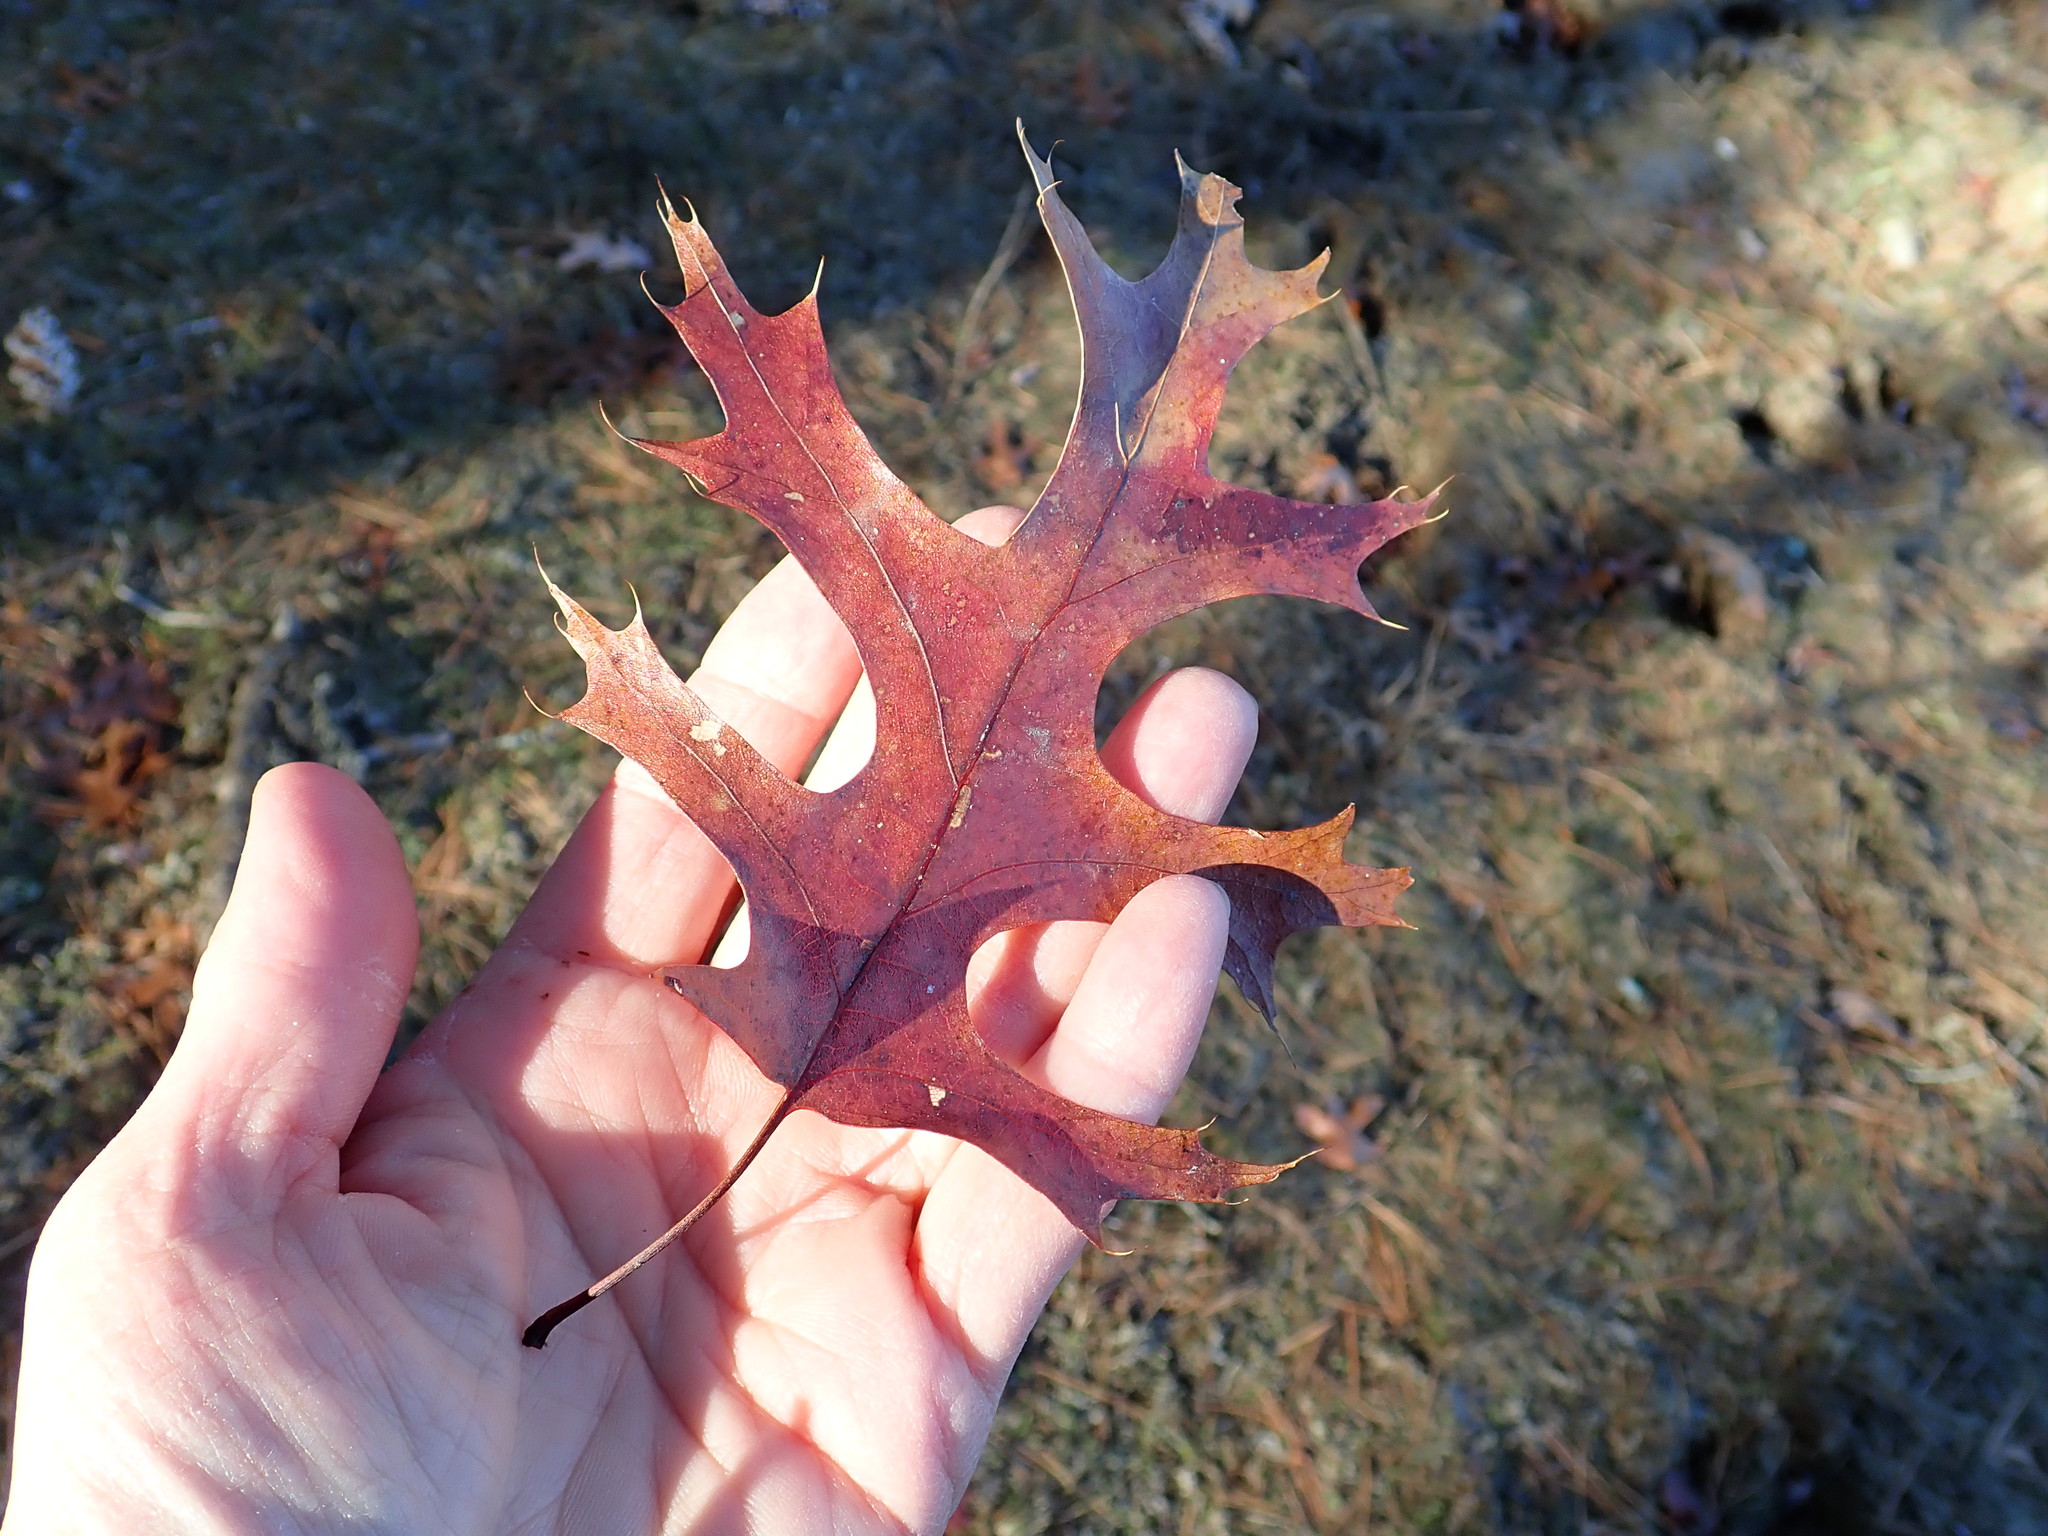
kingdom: Plantae
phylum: Tracheophyta
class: Magnoliopsida
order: Fagales
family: Fagaceae
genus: Quercus
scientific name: Quercus coccinea
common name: Scarlet oak
